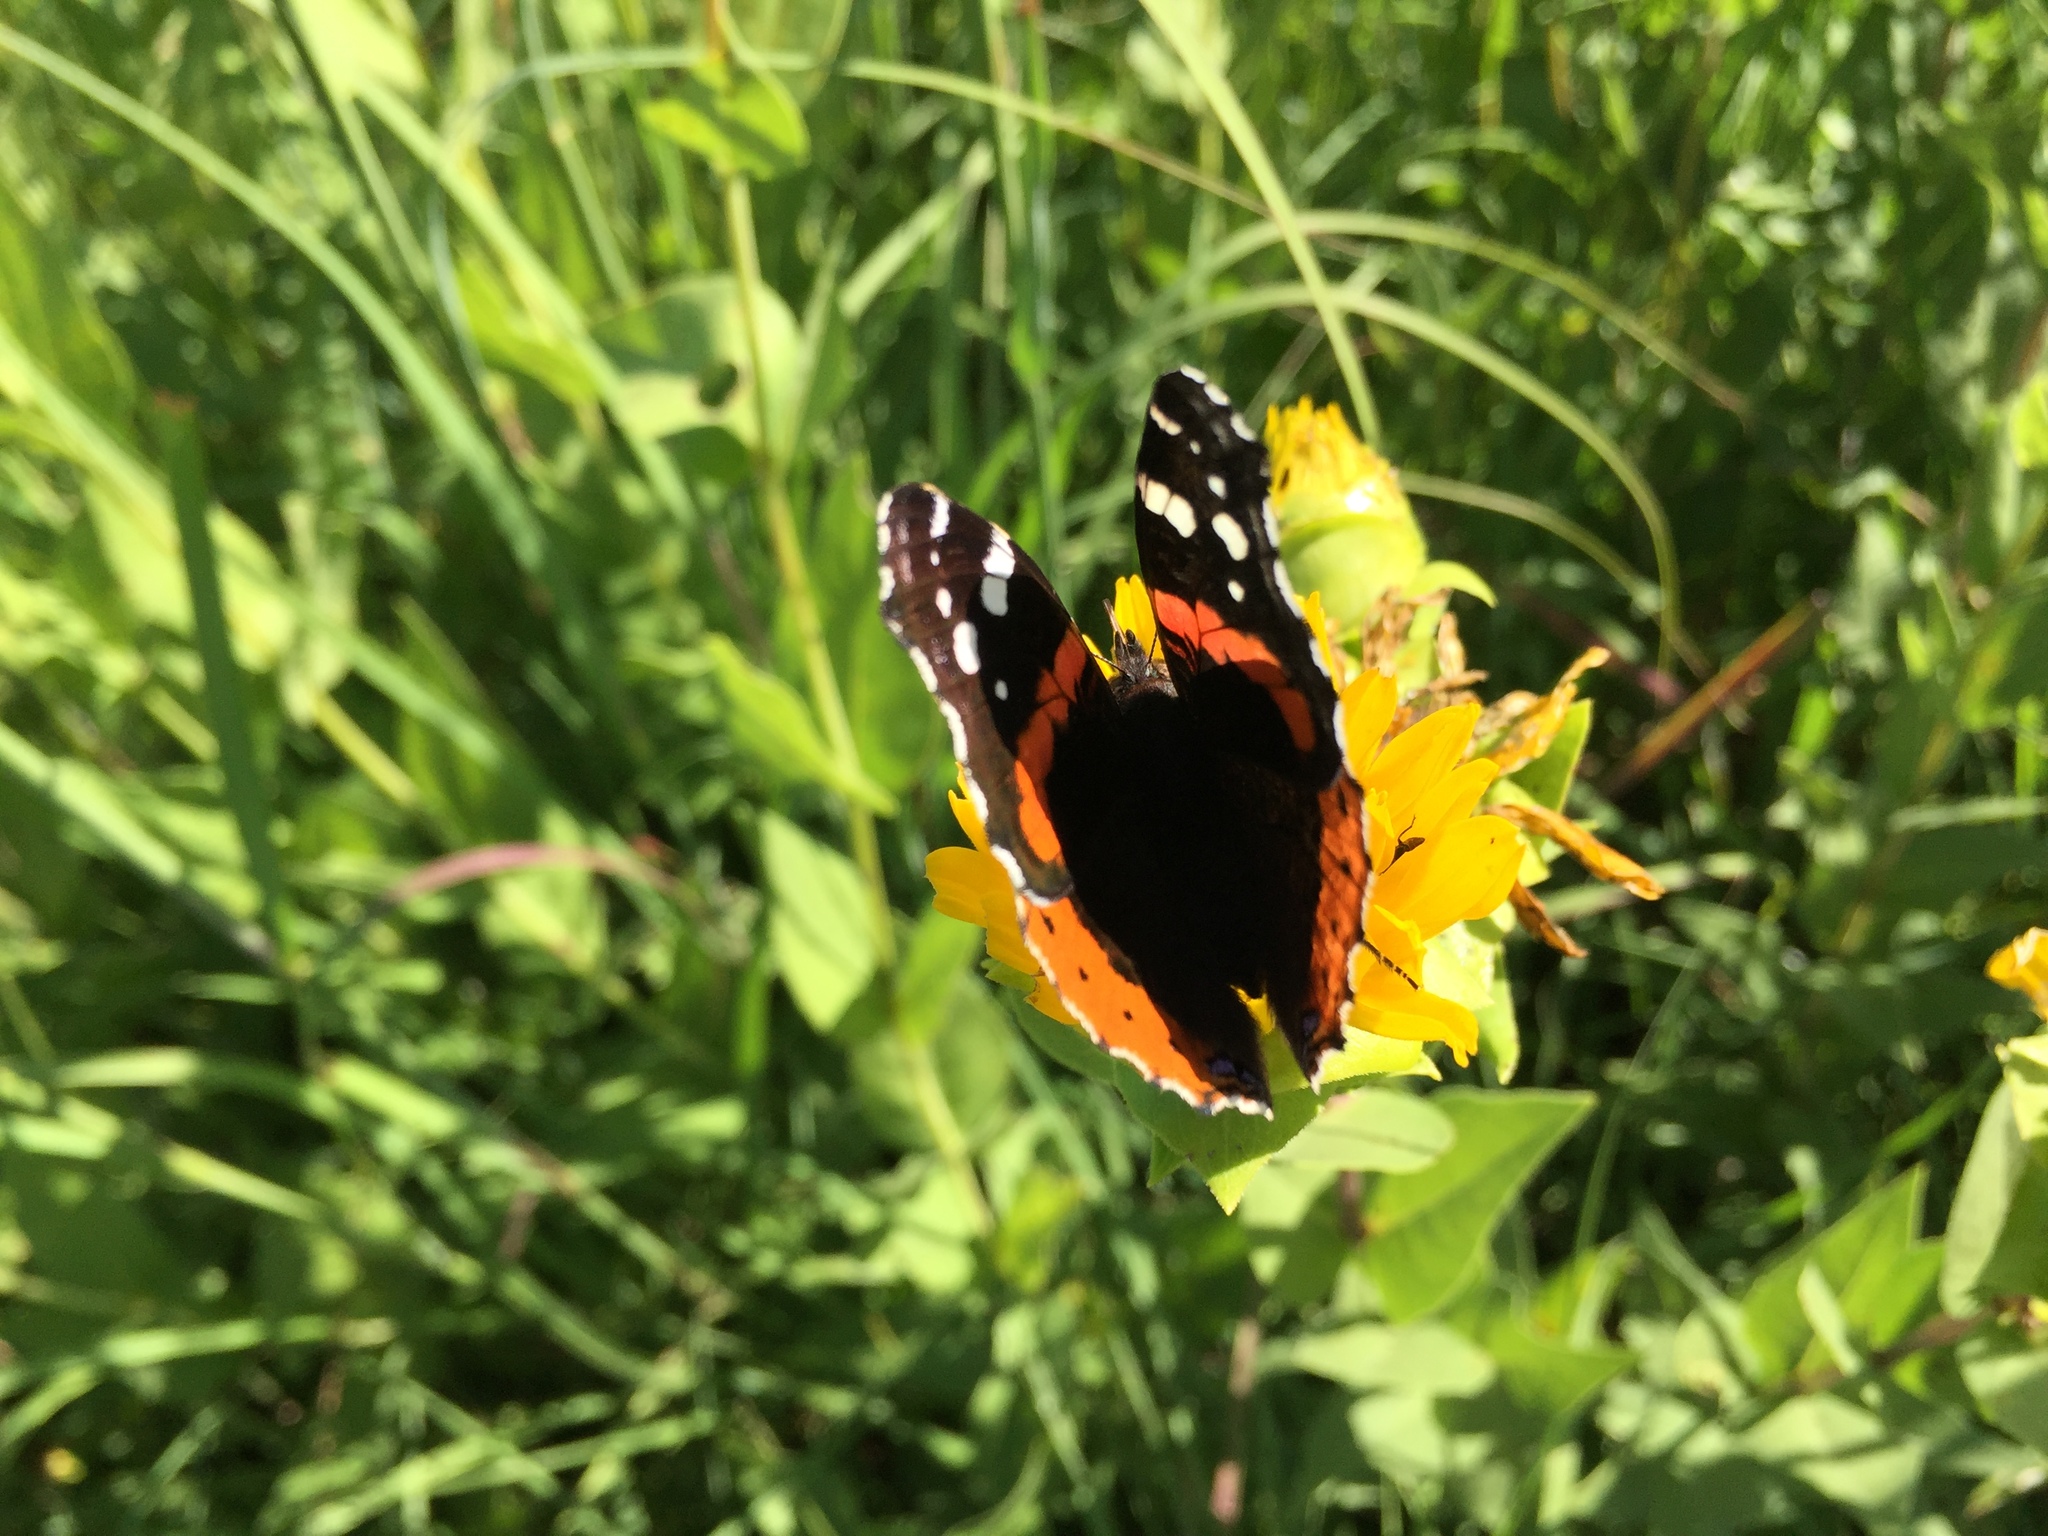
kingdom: Animalia
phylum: Arthropoda
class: Insecta
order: Lepidoptera
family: Nymphalidae
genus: Vanessa
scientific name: Vanessa atalanta
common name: Red admiral
